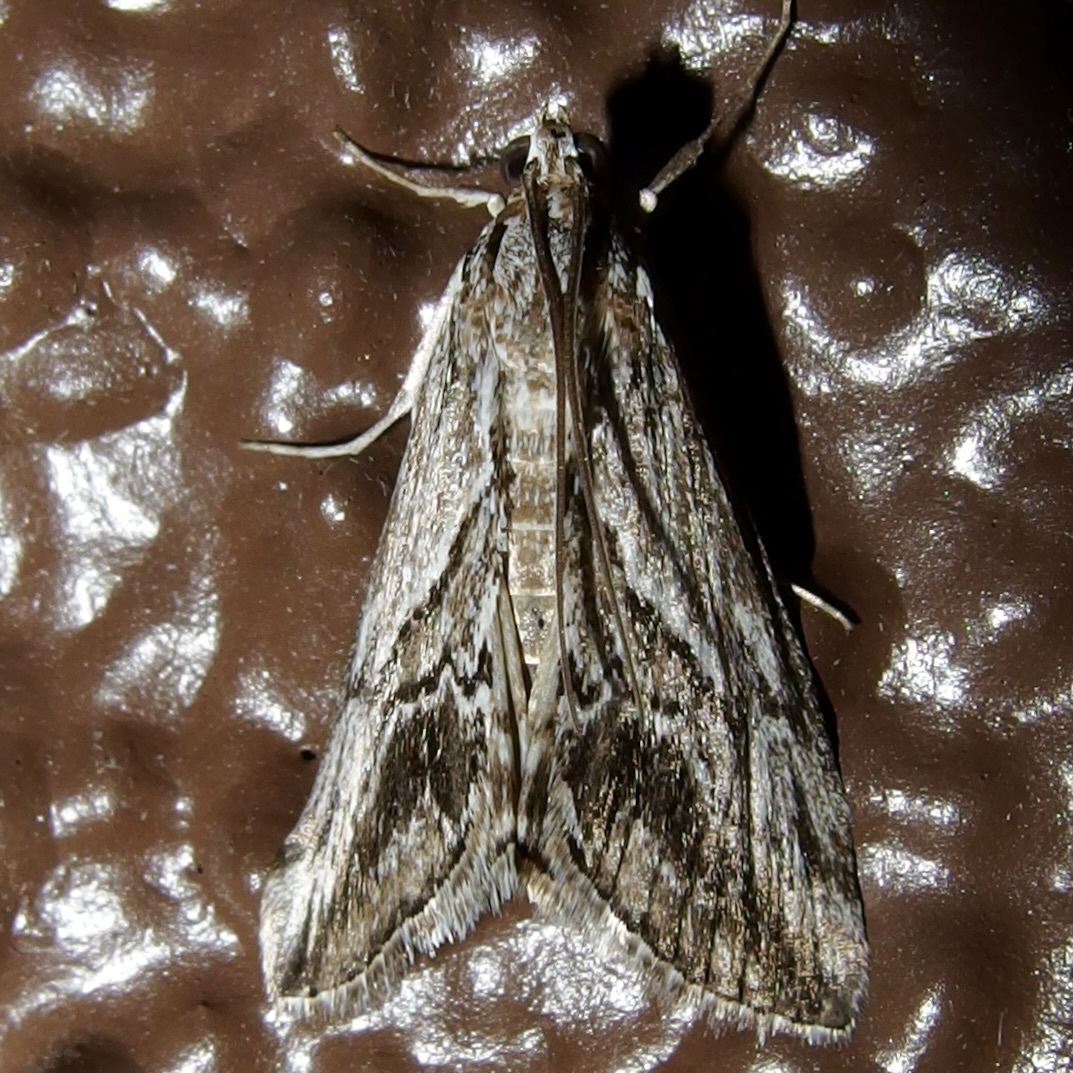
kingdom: Animalia
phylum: Arthropoda
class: Insecta
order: Lepidoptera
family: Crambidae
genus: Evergestis
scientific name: Evergestis simulatilis
